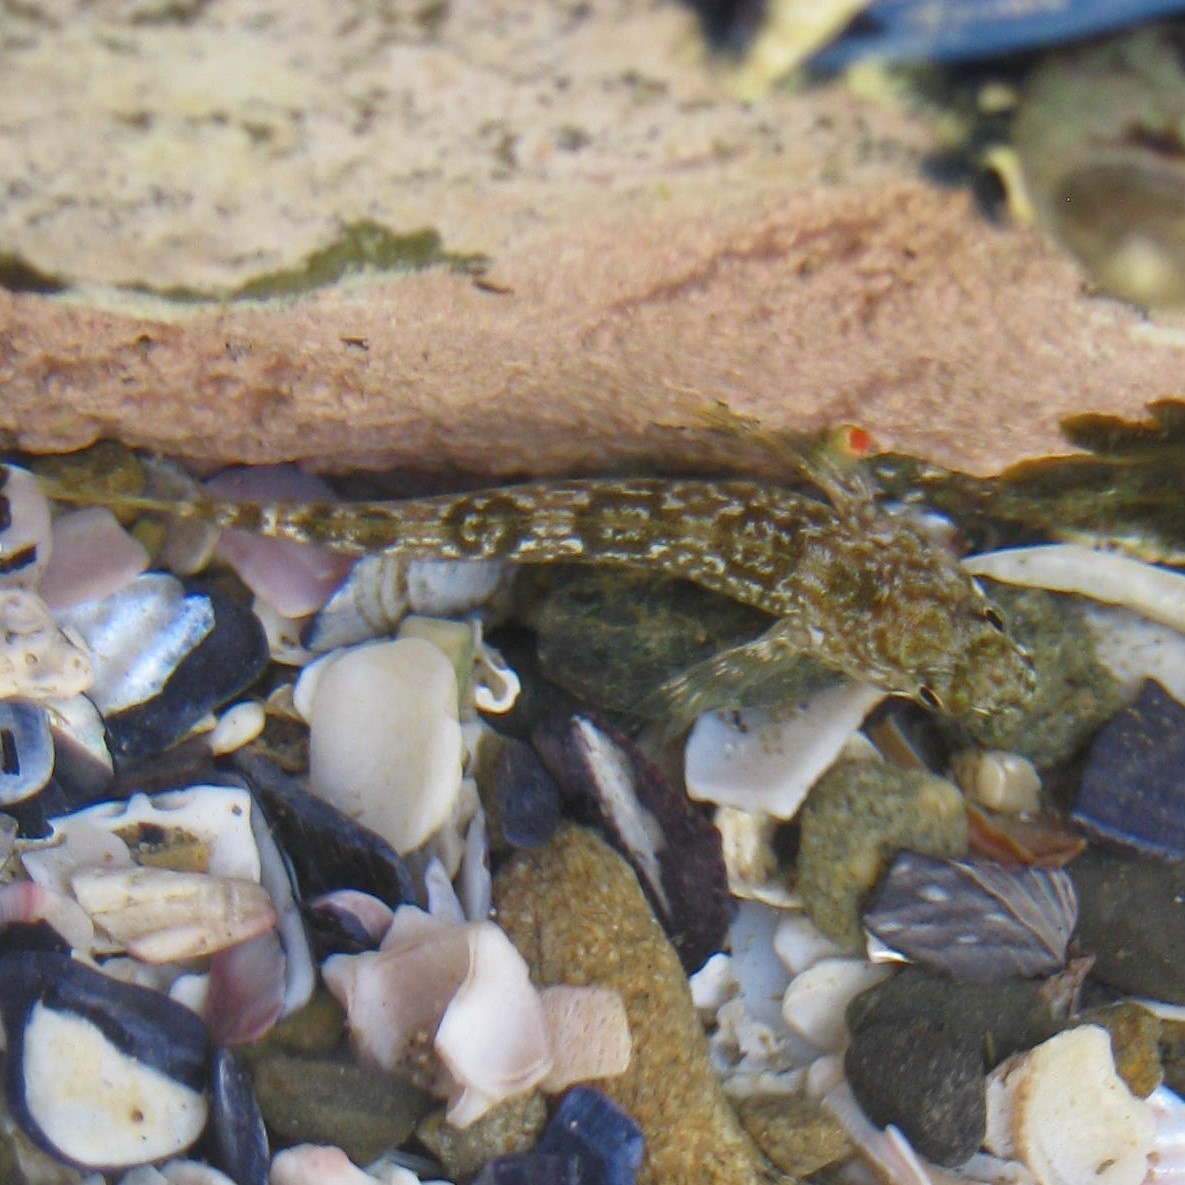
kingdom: Animalia
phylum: Chordata
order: Perciformes
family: Tripterygiidae
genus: Bellapiscis
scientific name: Bellapiscis medius
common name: Twister
